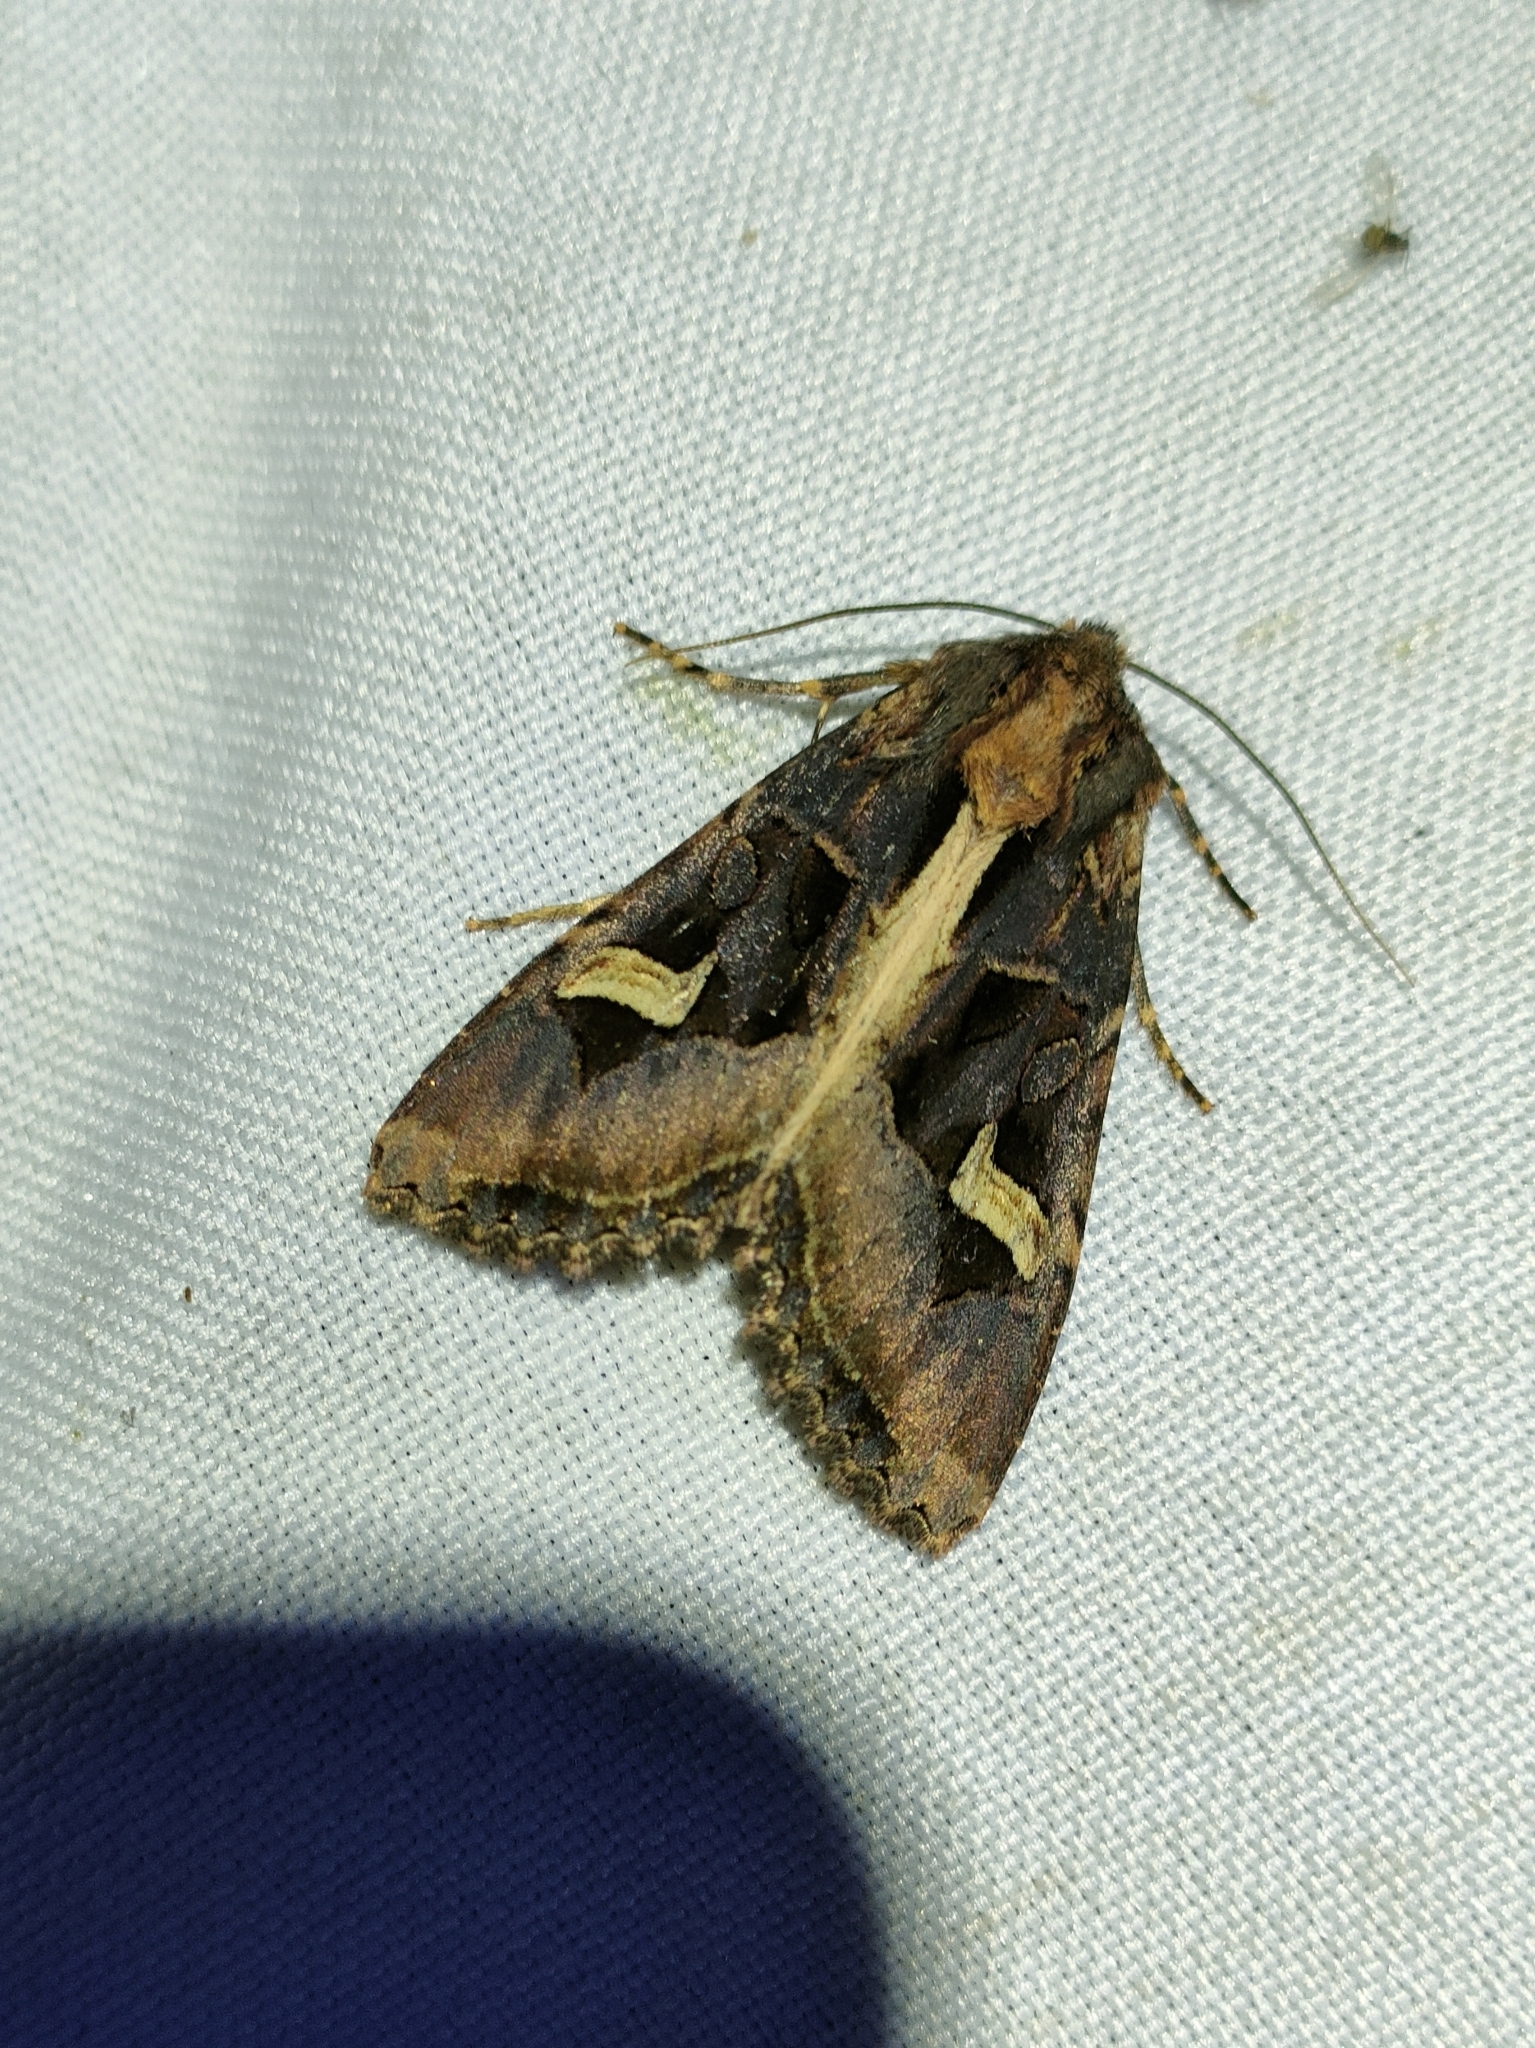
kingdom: Animalia
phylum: Arthropoda
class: Insecta
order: Lepidoptera
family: Noctuidae
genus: Trigonophora
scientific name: Trigonophora flammea
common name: Flame brocade
